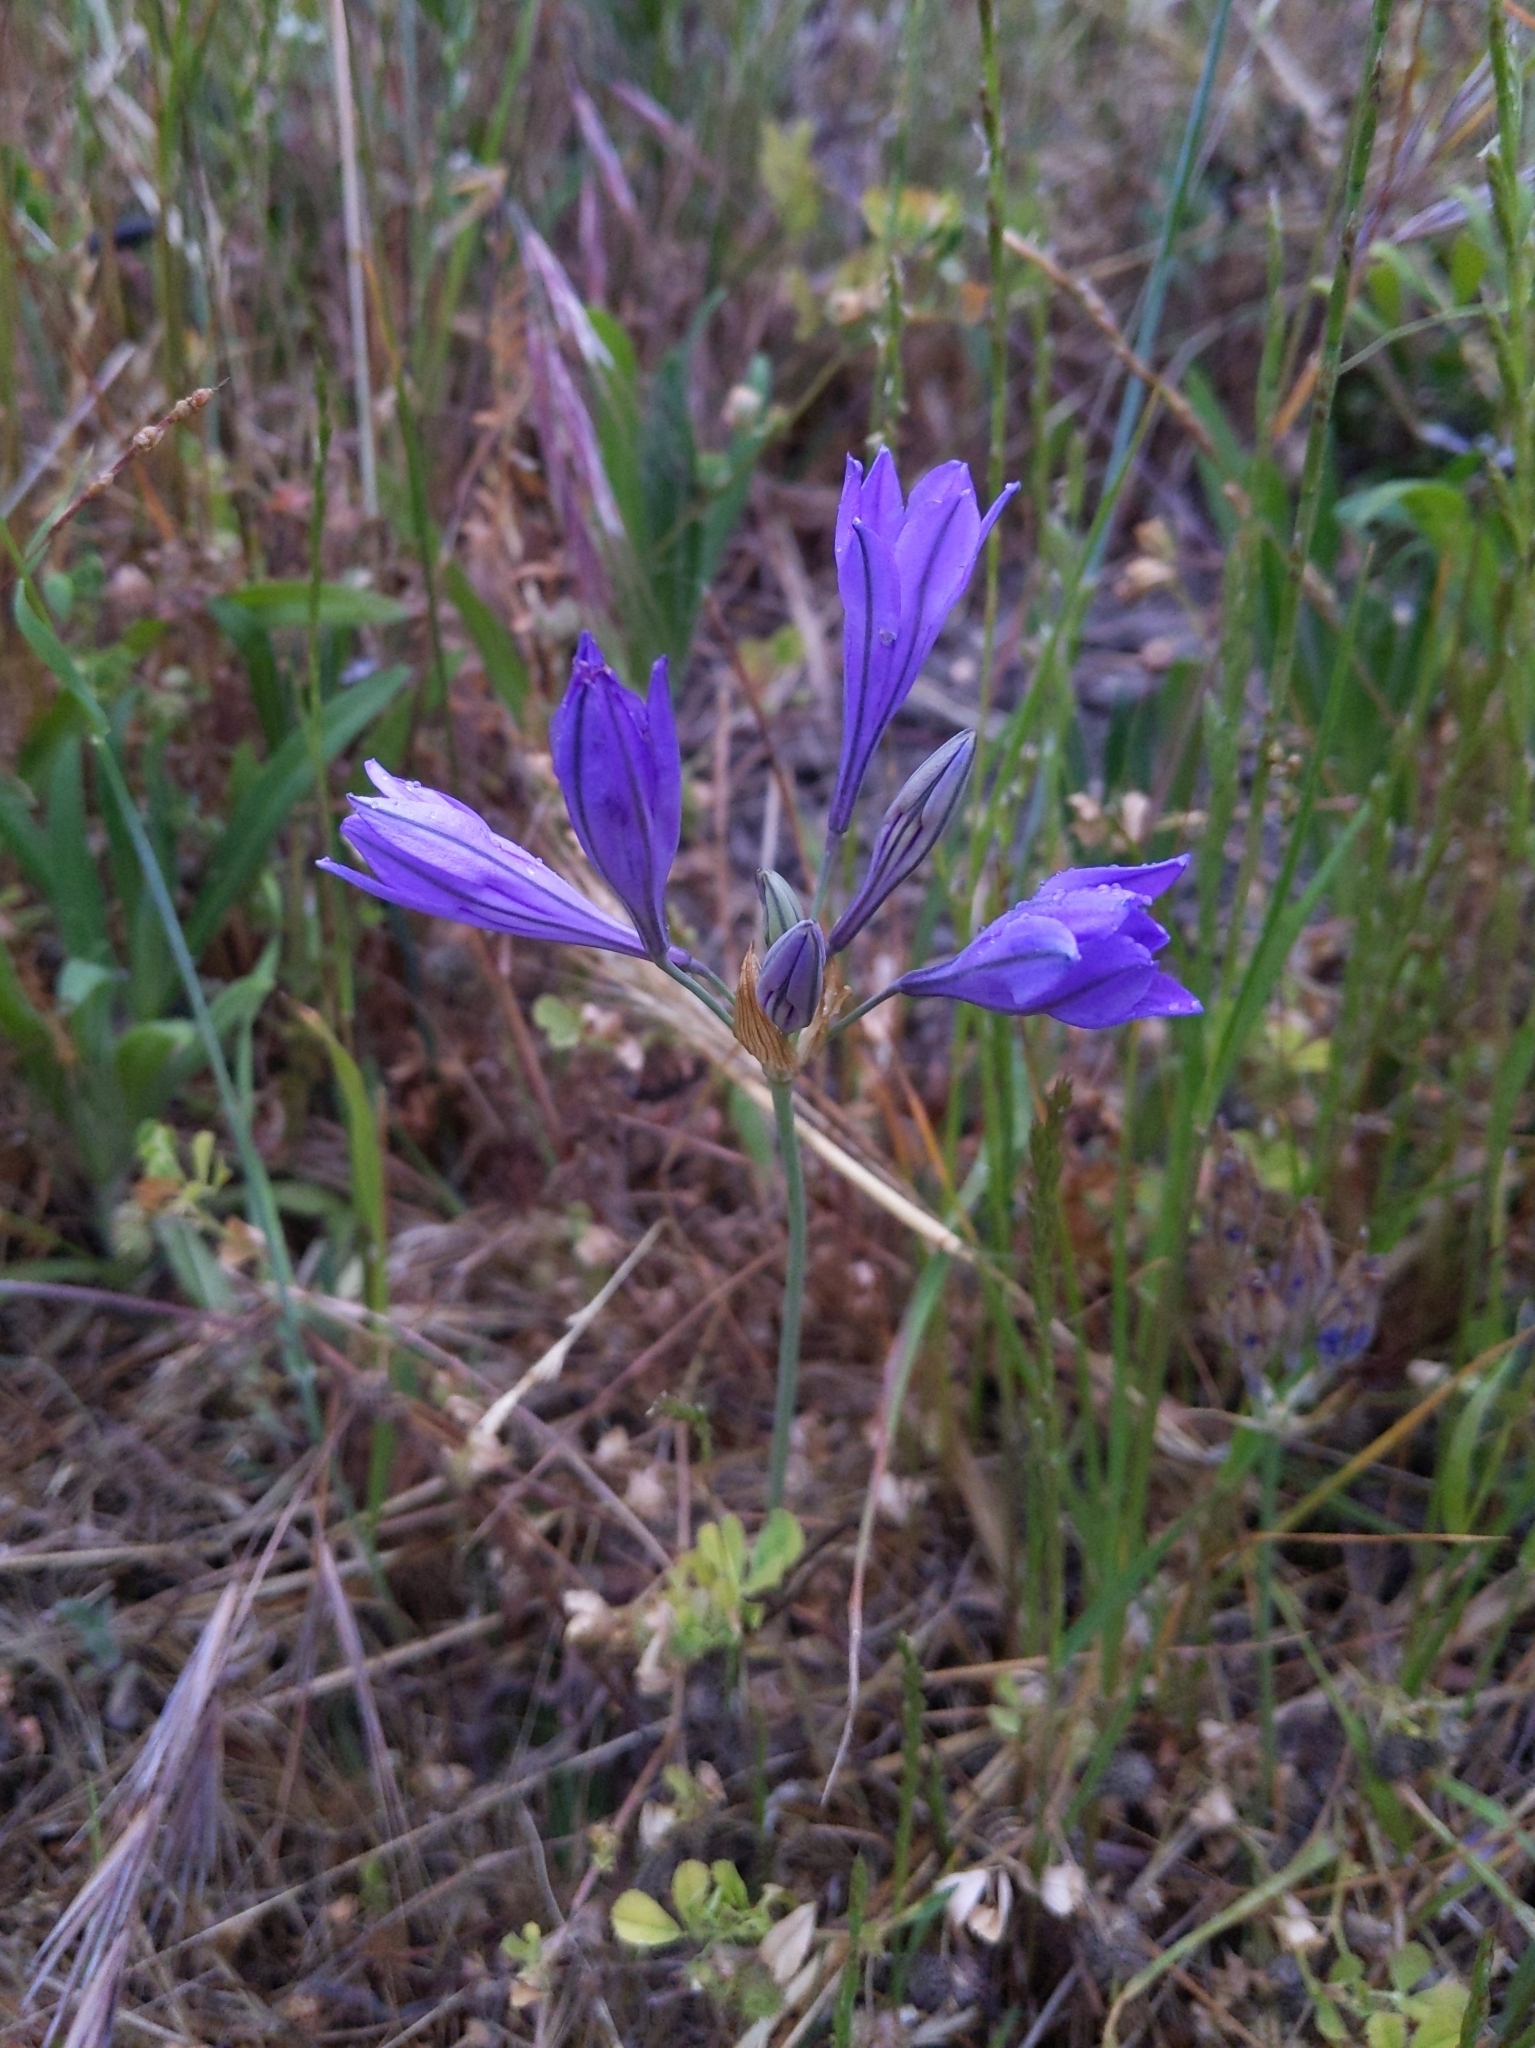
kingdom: Plantae
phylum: Tracheophyta
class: Liliopsida
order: Asparagales
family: Asparagaceae
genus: Triteleia
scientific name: Triteleia laxa
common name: Triplet-lily
